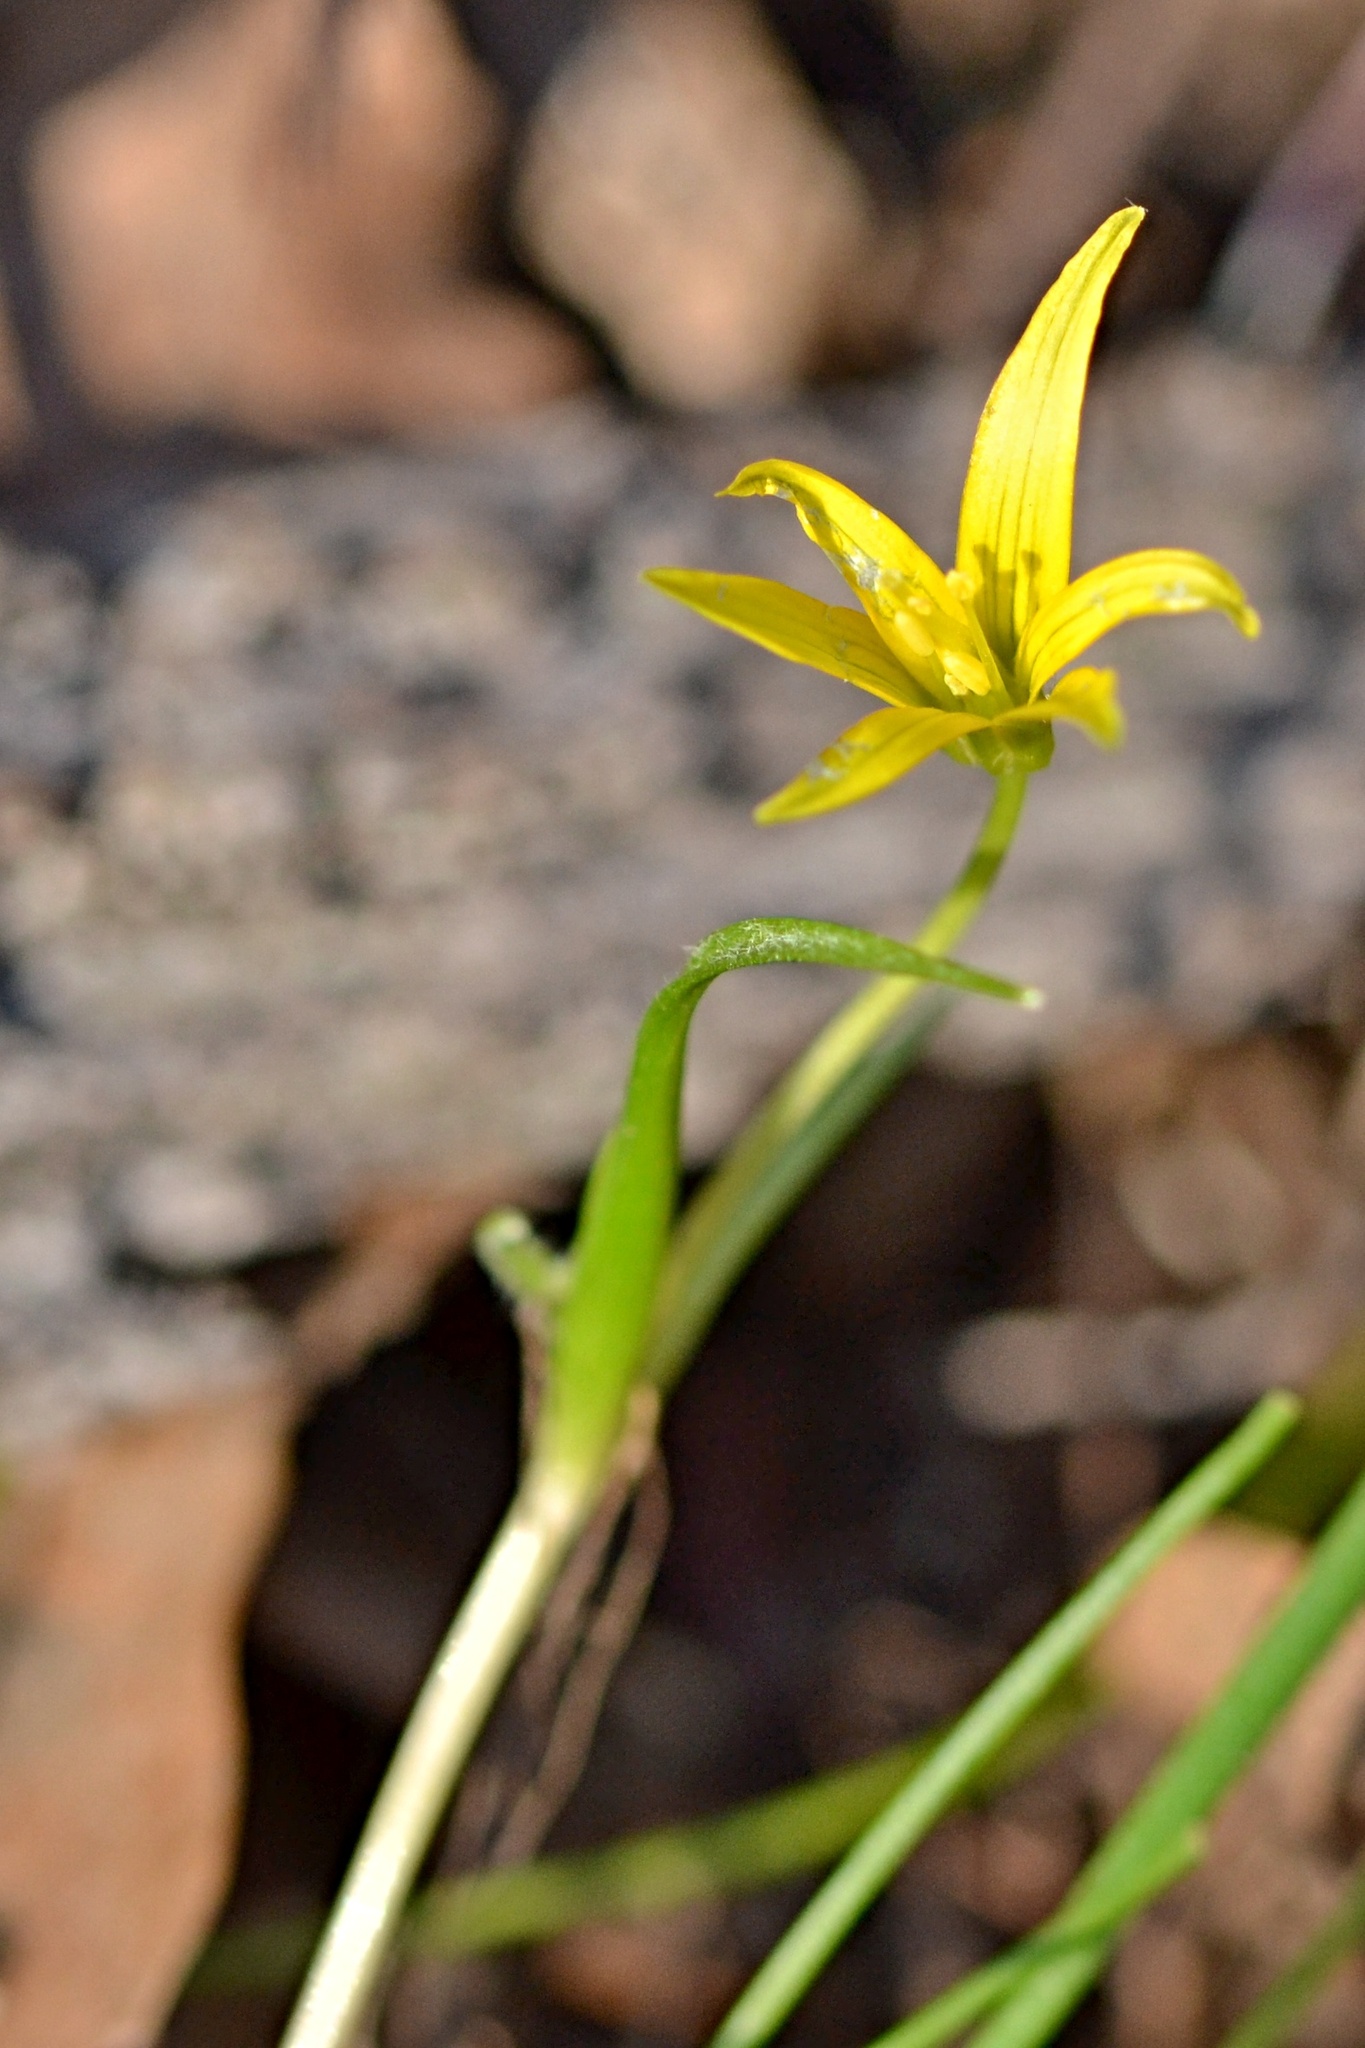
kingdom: Plantae
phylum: Tracheophyta
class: Liliopsida
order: Liliales
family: Liliaceae
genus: Gagea
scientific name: Gagea minima
